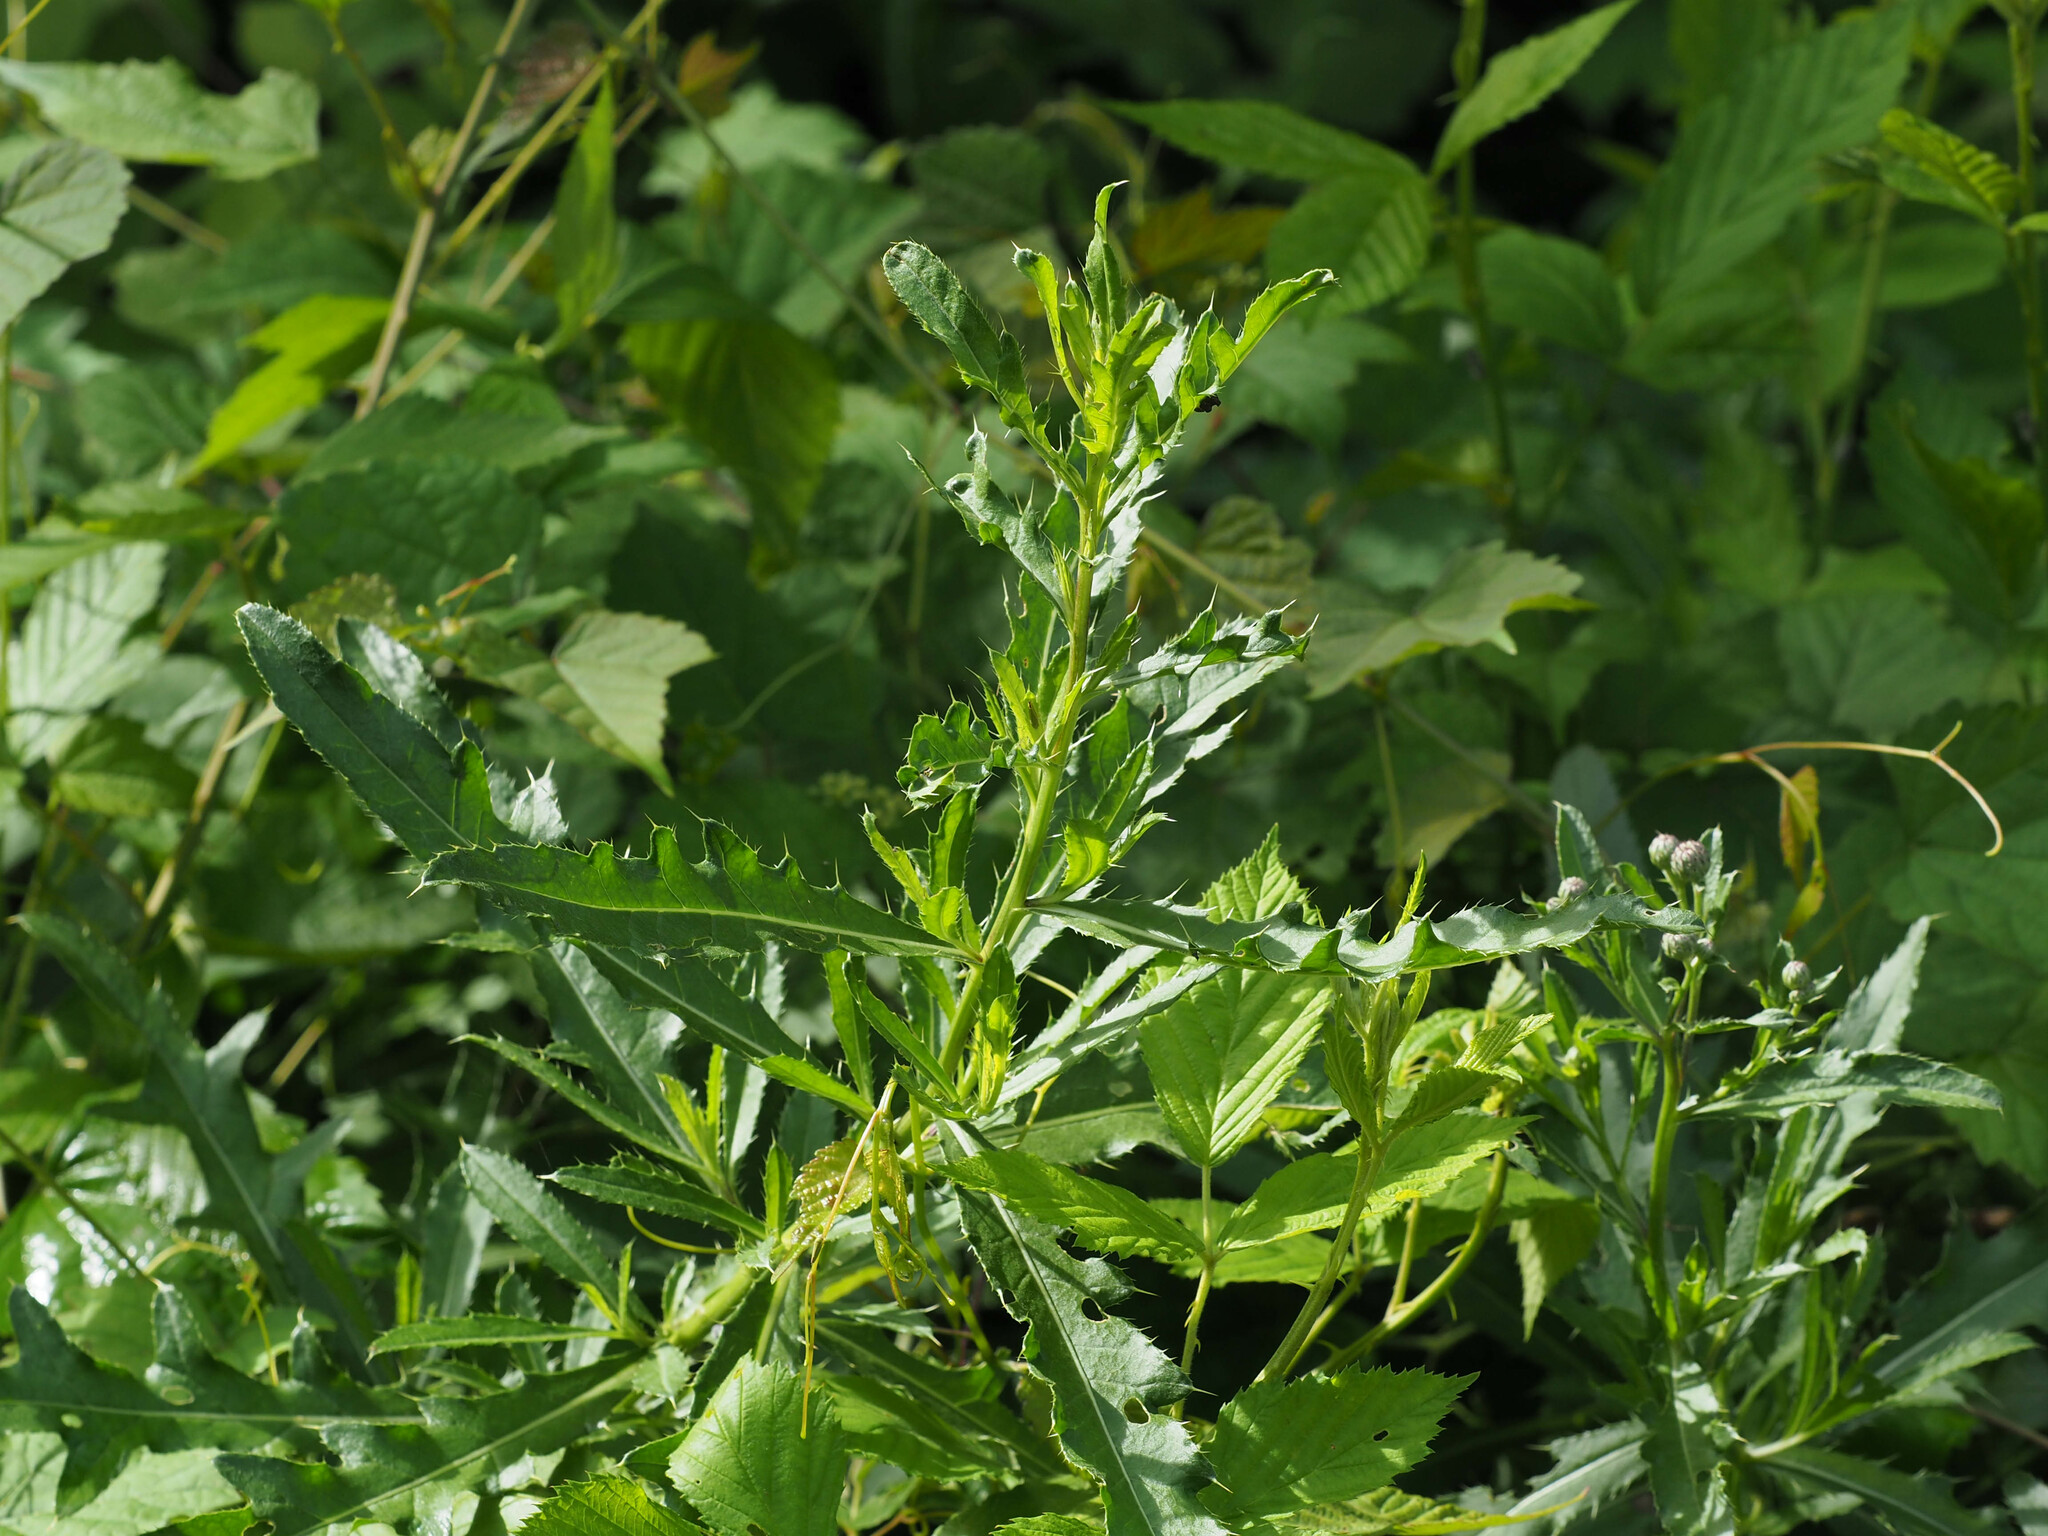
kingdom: Plantae
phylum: Tracheophyta
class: Magnoliopsida
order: Asterales
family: Asteraceae
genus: Cirsium
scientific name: Cirsium arvense
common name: Creeping thistle
